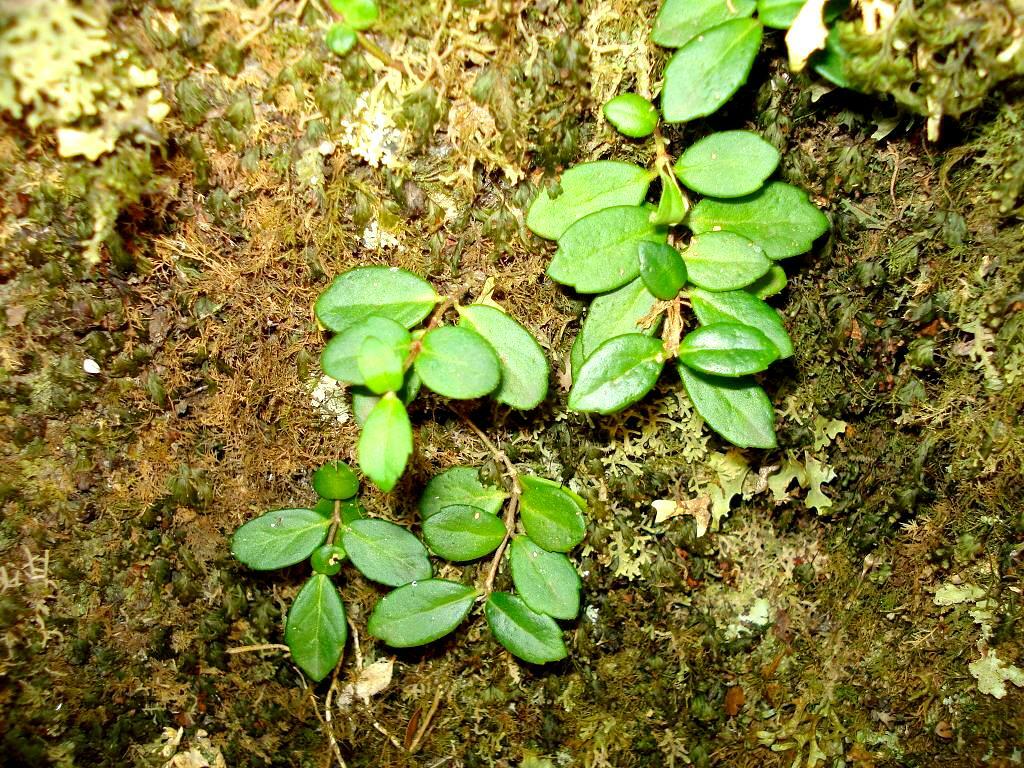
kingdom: Plantae
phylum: Tracheophyta
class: Magnoliopsida
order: Lamiales
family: Gesneriaceae
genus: Sarmienta
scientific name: Sarmienta scandens
